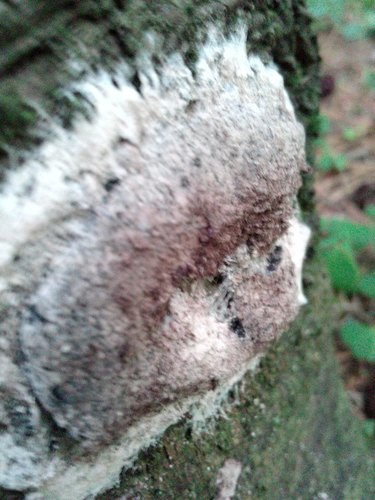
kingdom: Protozoa
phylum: Mycetozoa
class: Myxomycetes
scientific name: Myxomycetes
